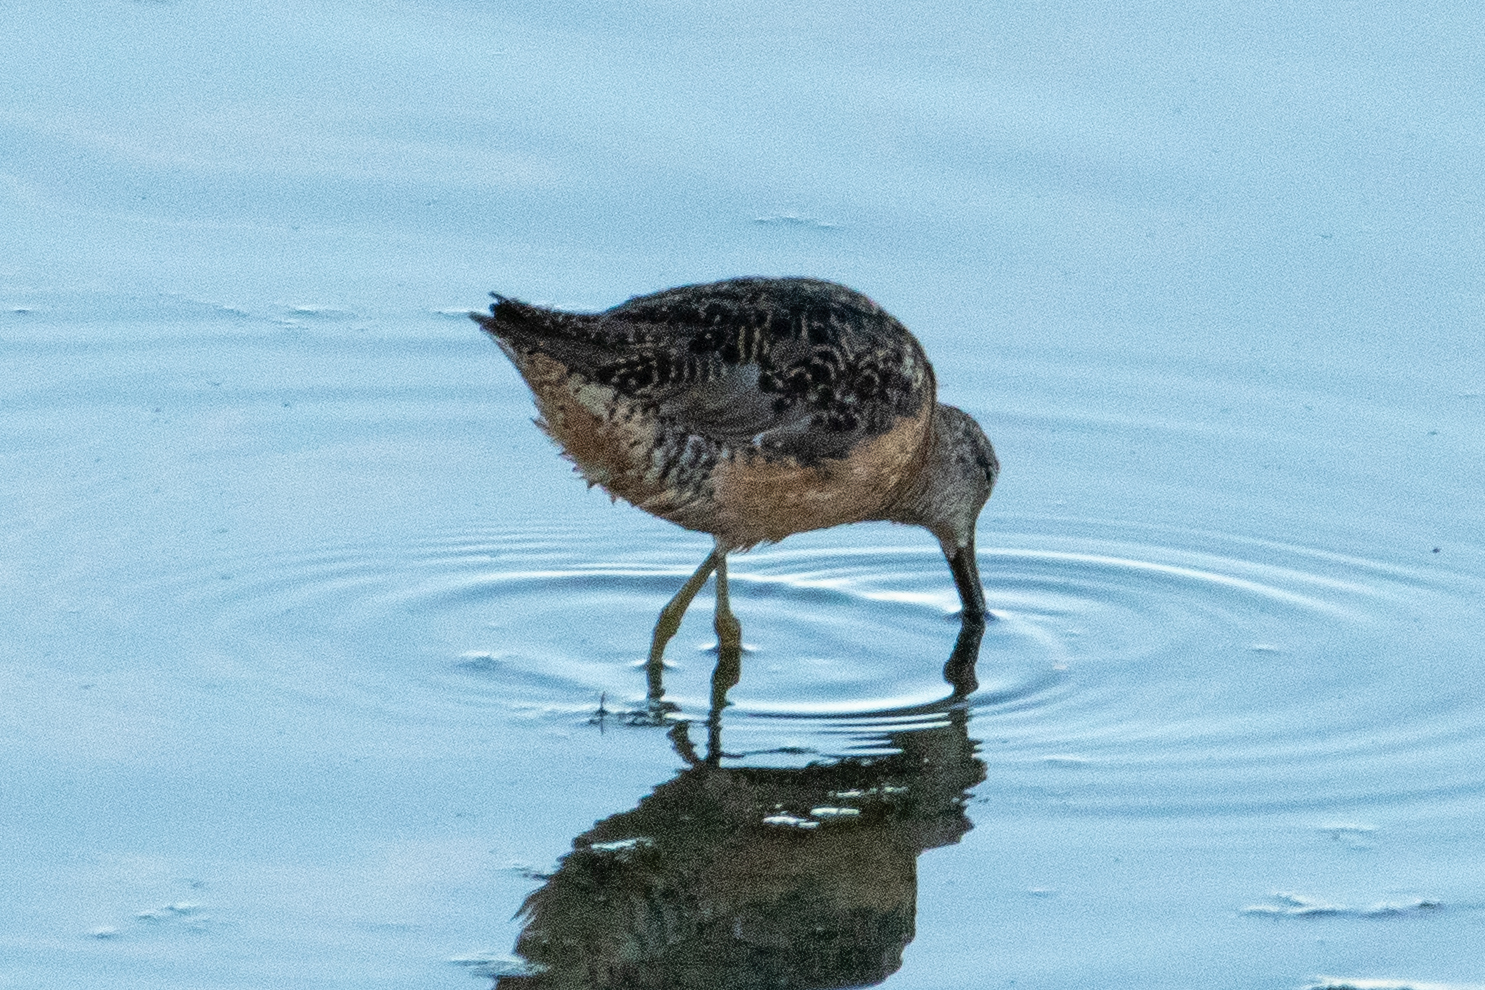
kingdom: Animalia
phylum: Chordata
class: Aves
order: Charadriiformes
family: Scolopacidae
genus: Limnodromus
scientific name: Limnodromus scolopaceus
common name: Long-billed dowitcher
